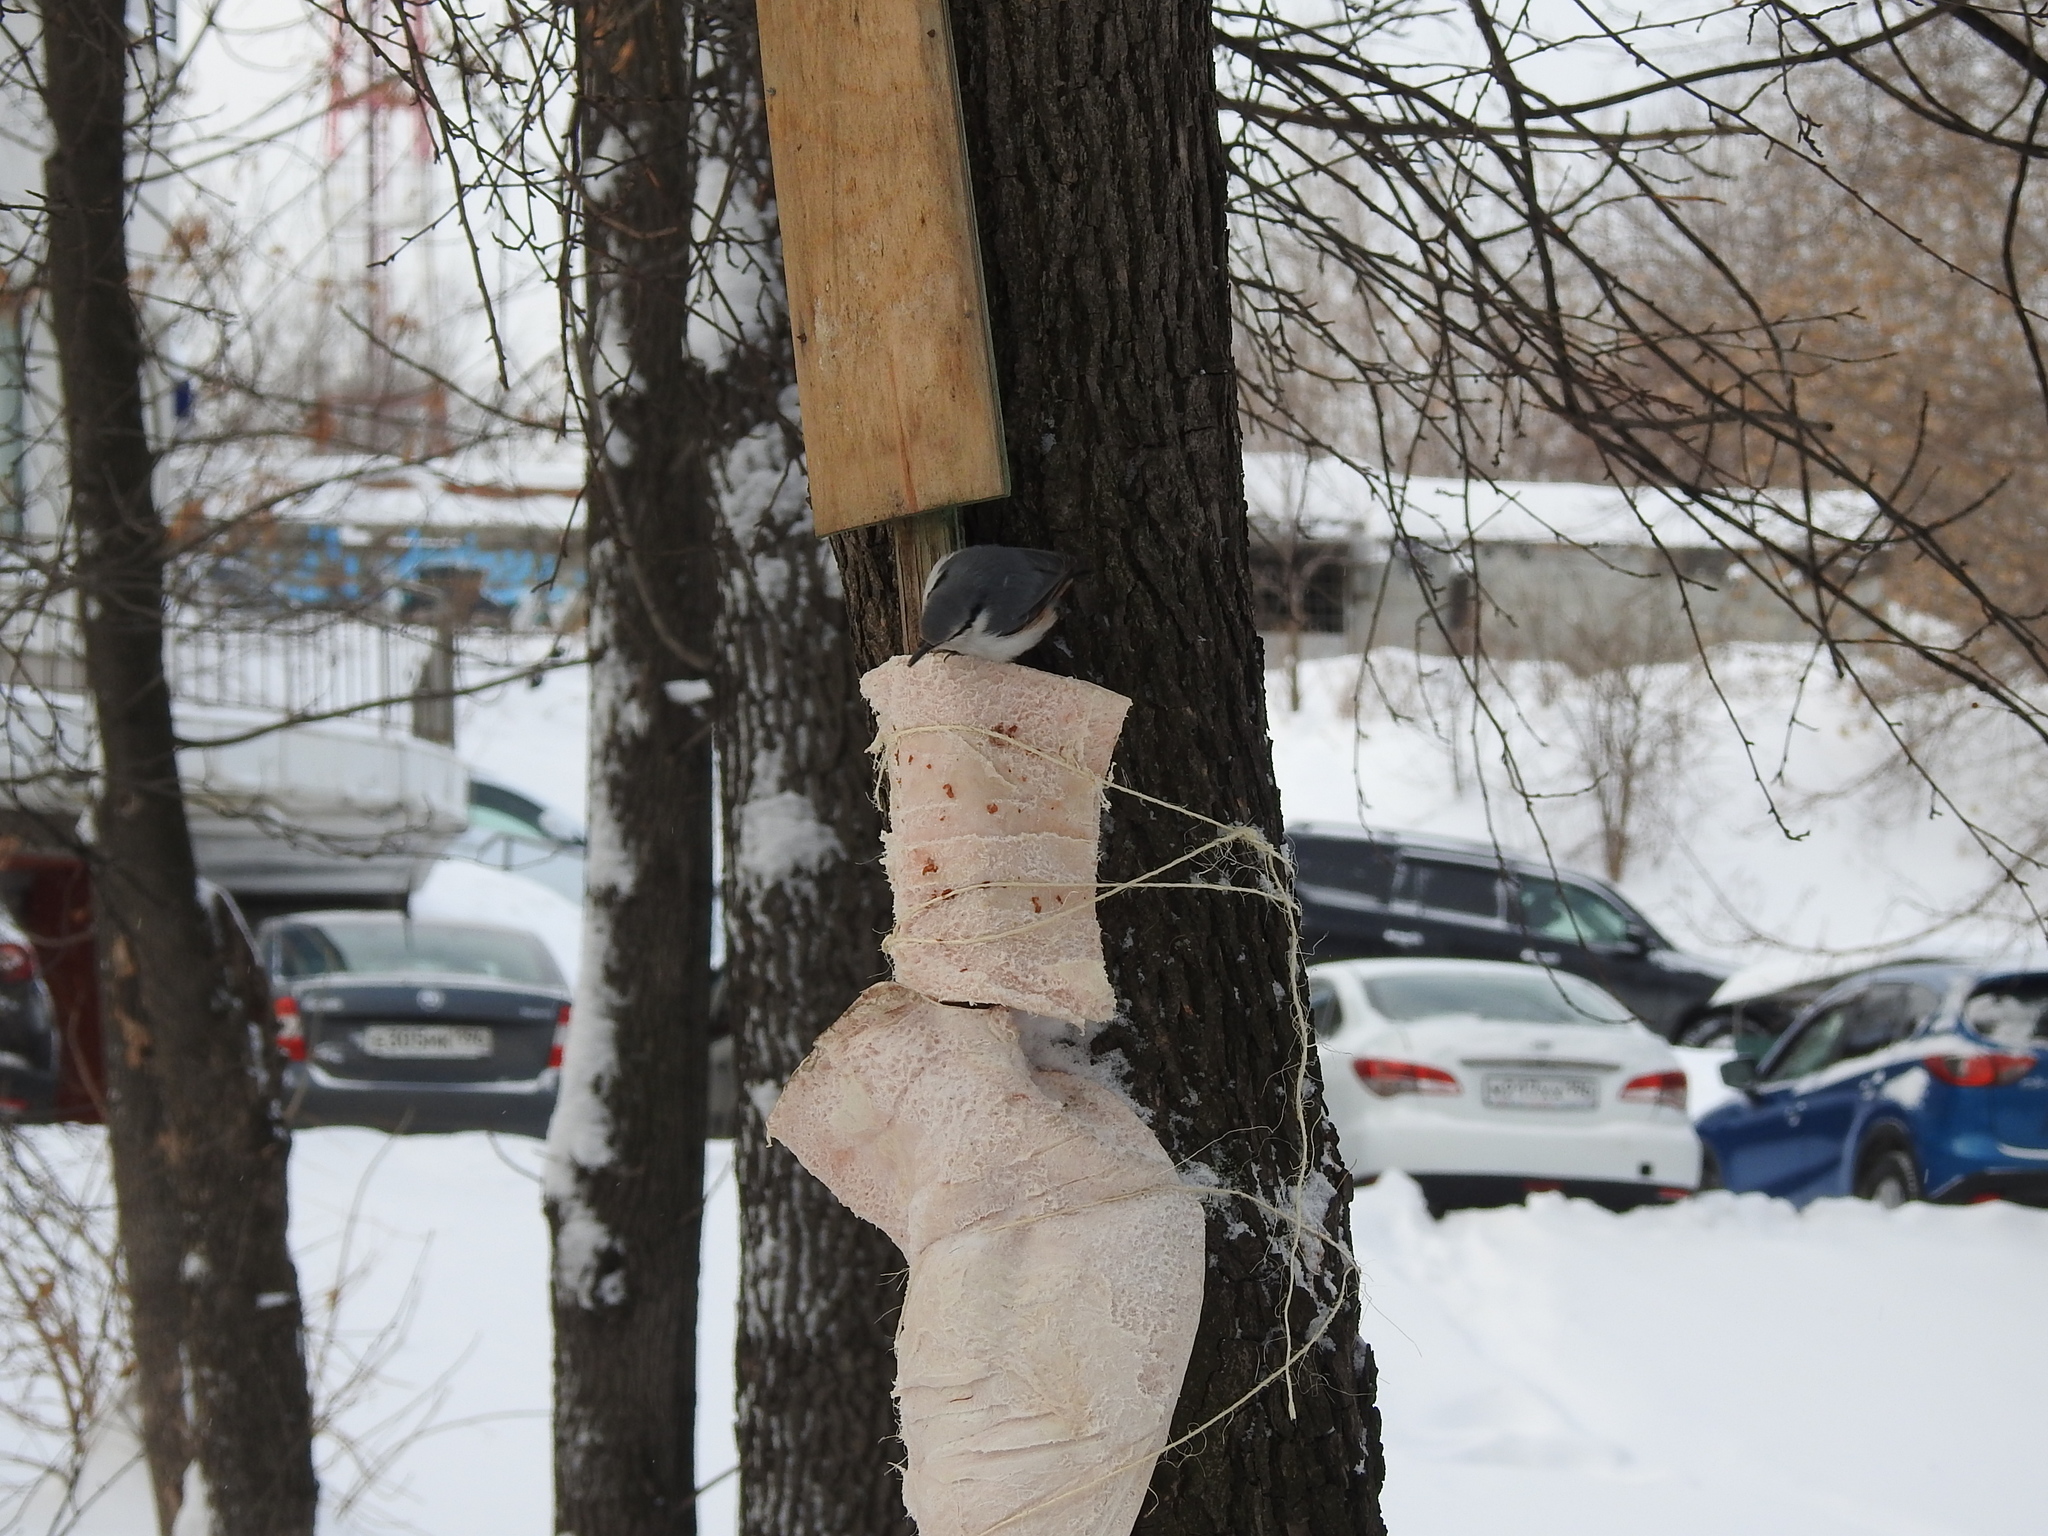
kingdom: Animalia
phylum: Chordata
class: Aves
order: Passeriformes
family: Sittidae
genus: Sitta
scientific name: Sitta europaea
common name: Eurasian nuthatch
